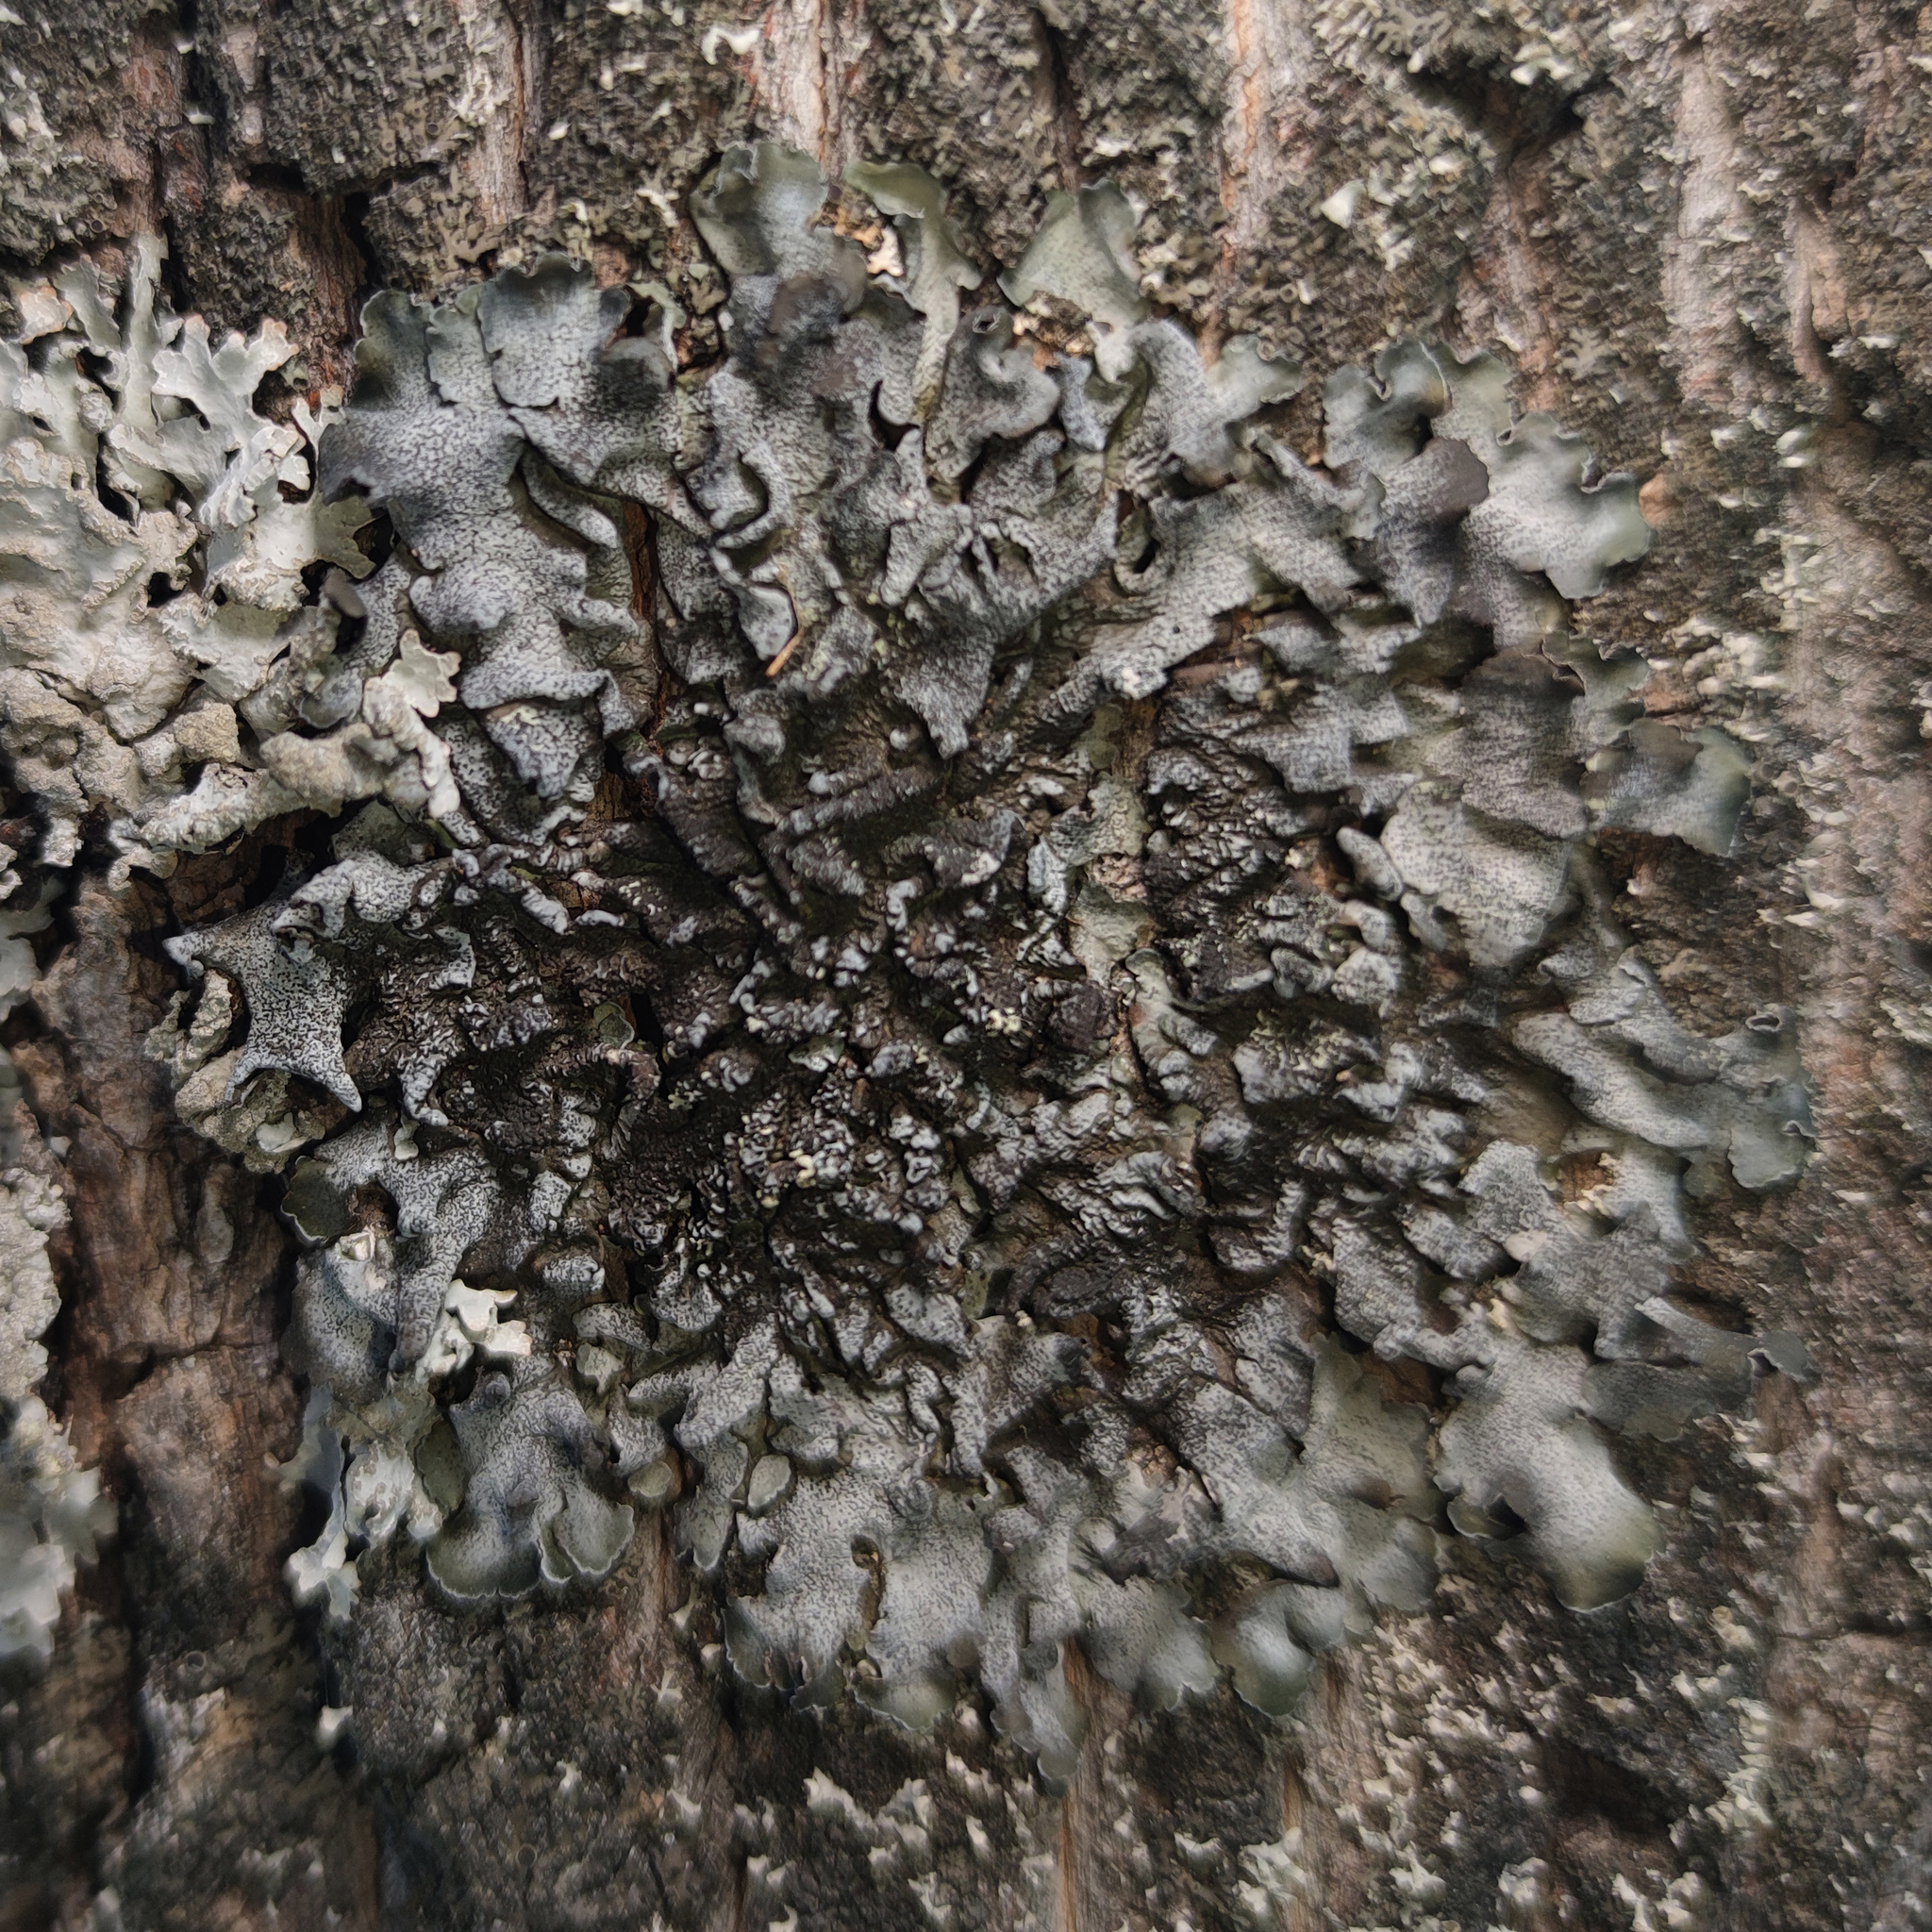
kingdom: Fungi
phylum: Ascomycota
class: Lecanoromycetes
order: Lecanorales
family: Parmeliaceae
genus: Pleurosticta
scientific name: Pleurosticta acetabulum
